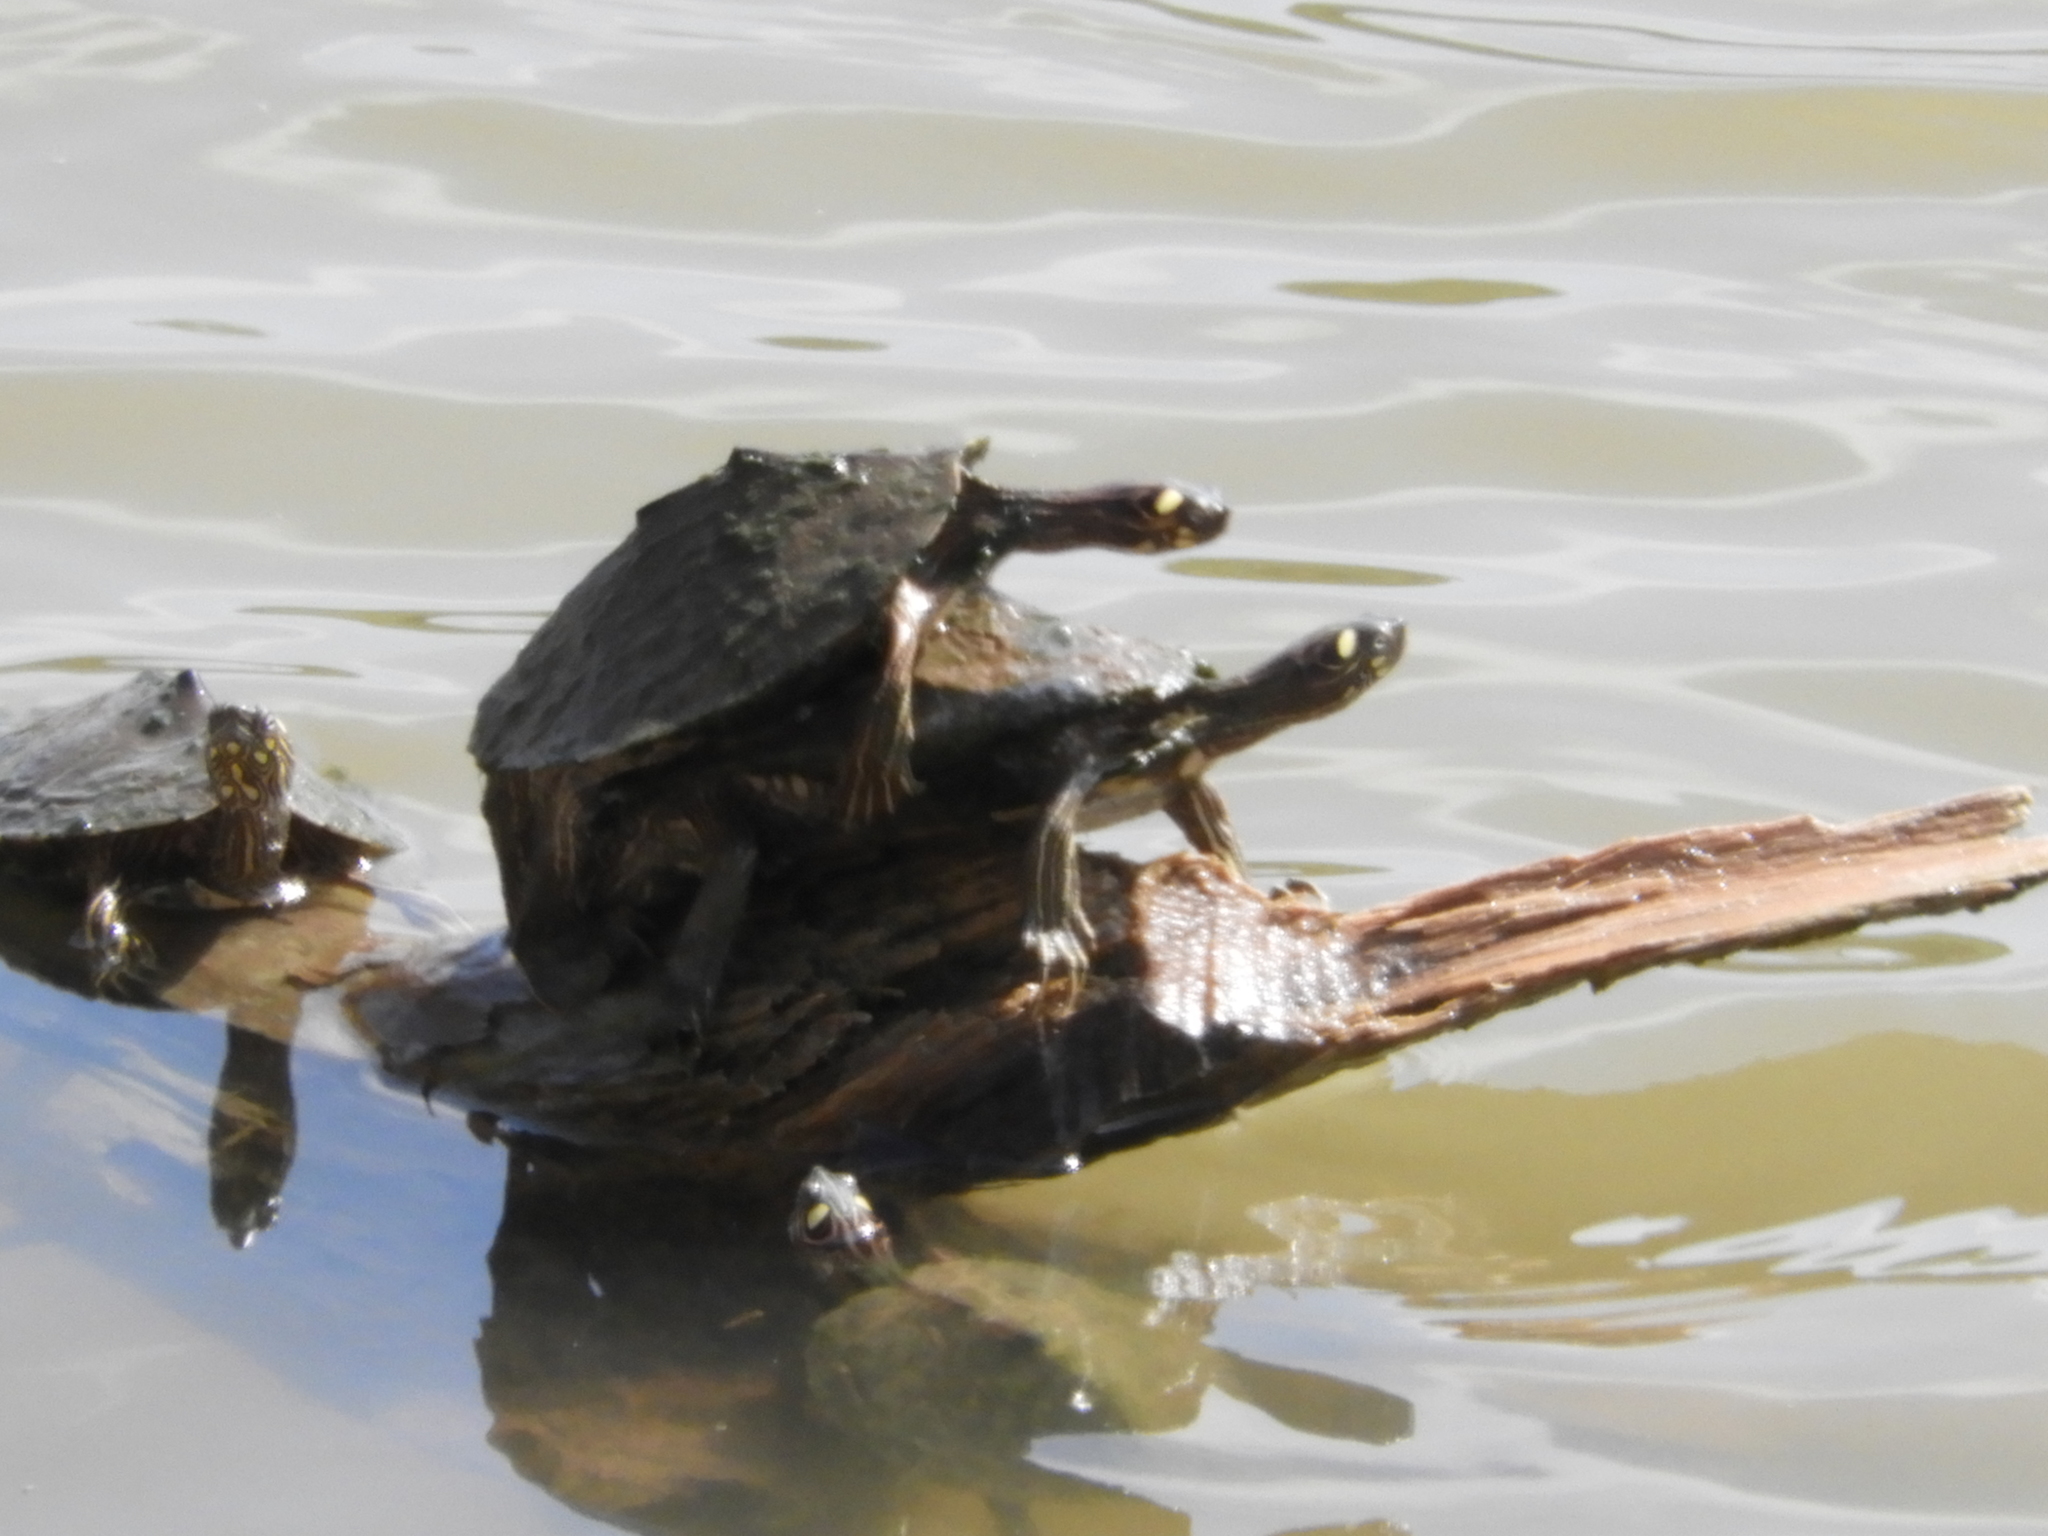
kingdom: Animalia
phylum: Chordata
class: Testudines
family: Emydidae
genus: Graptemys
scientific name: Graptemys ouachitensis
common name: Ouachita map turtle
